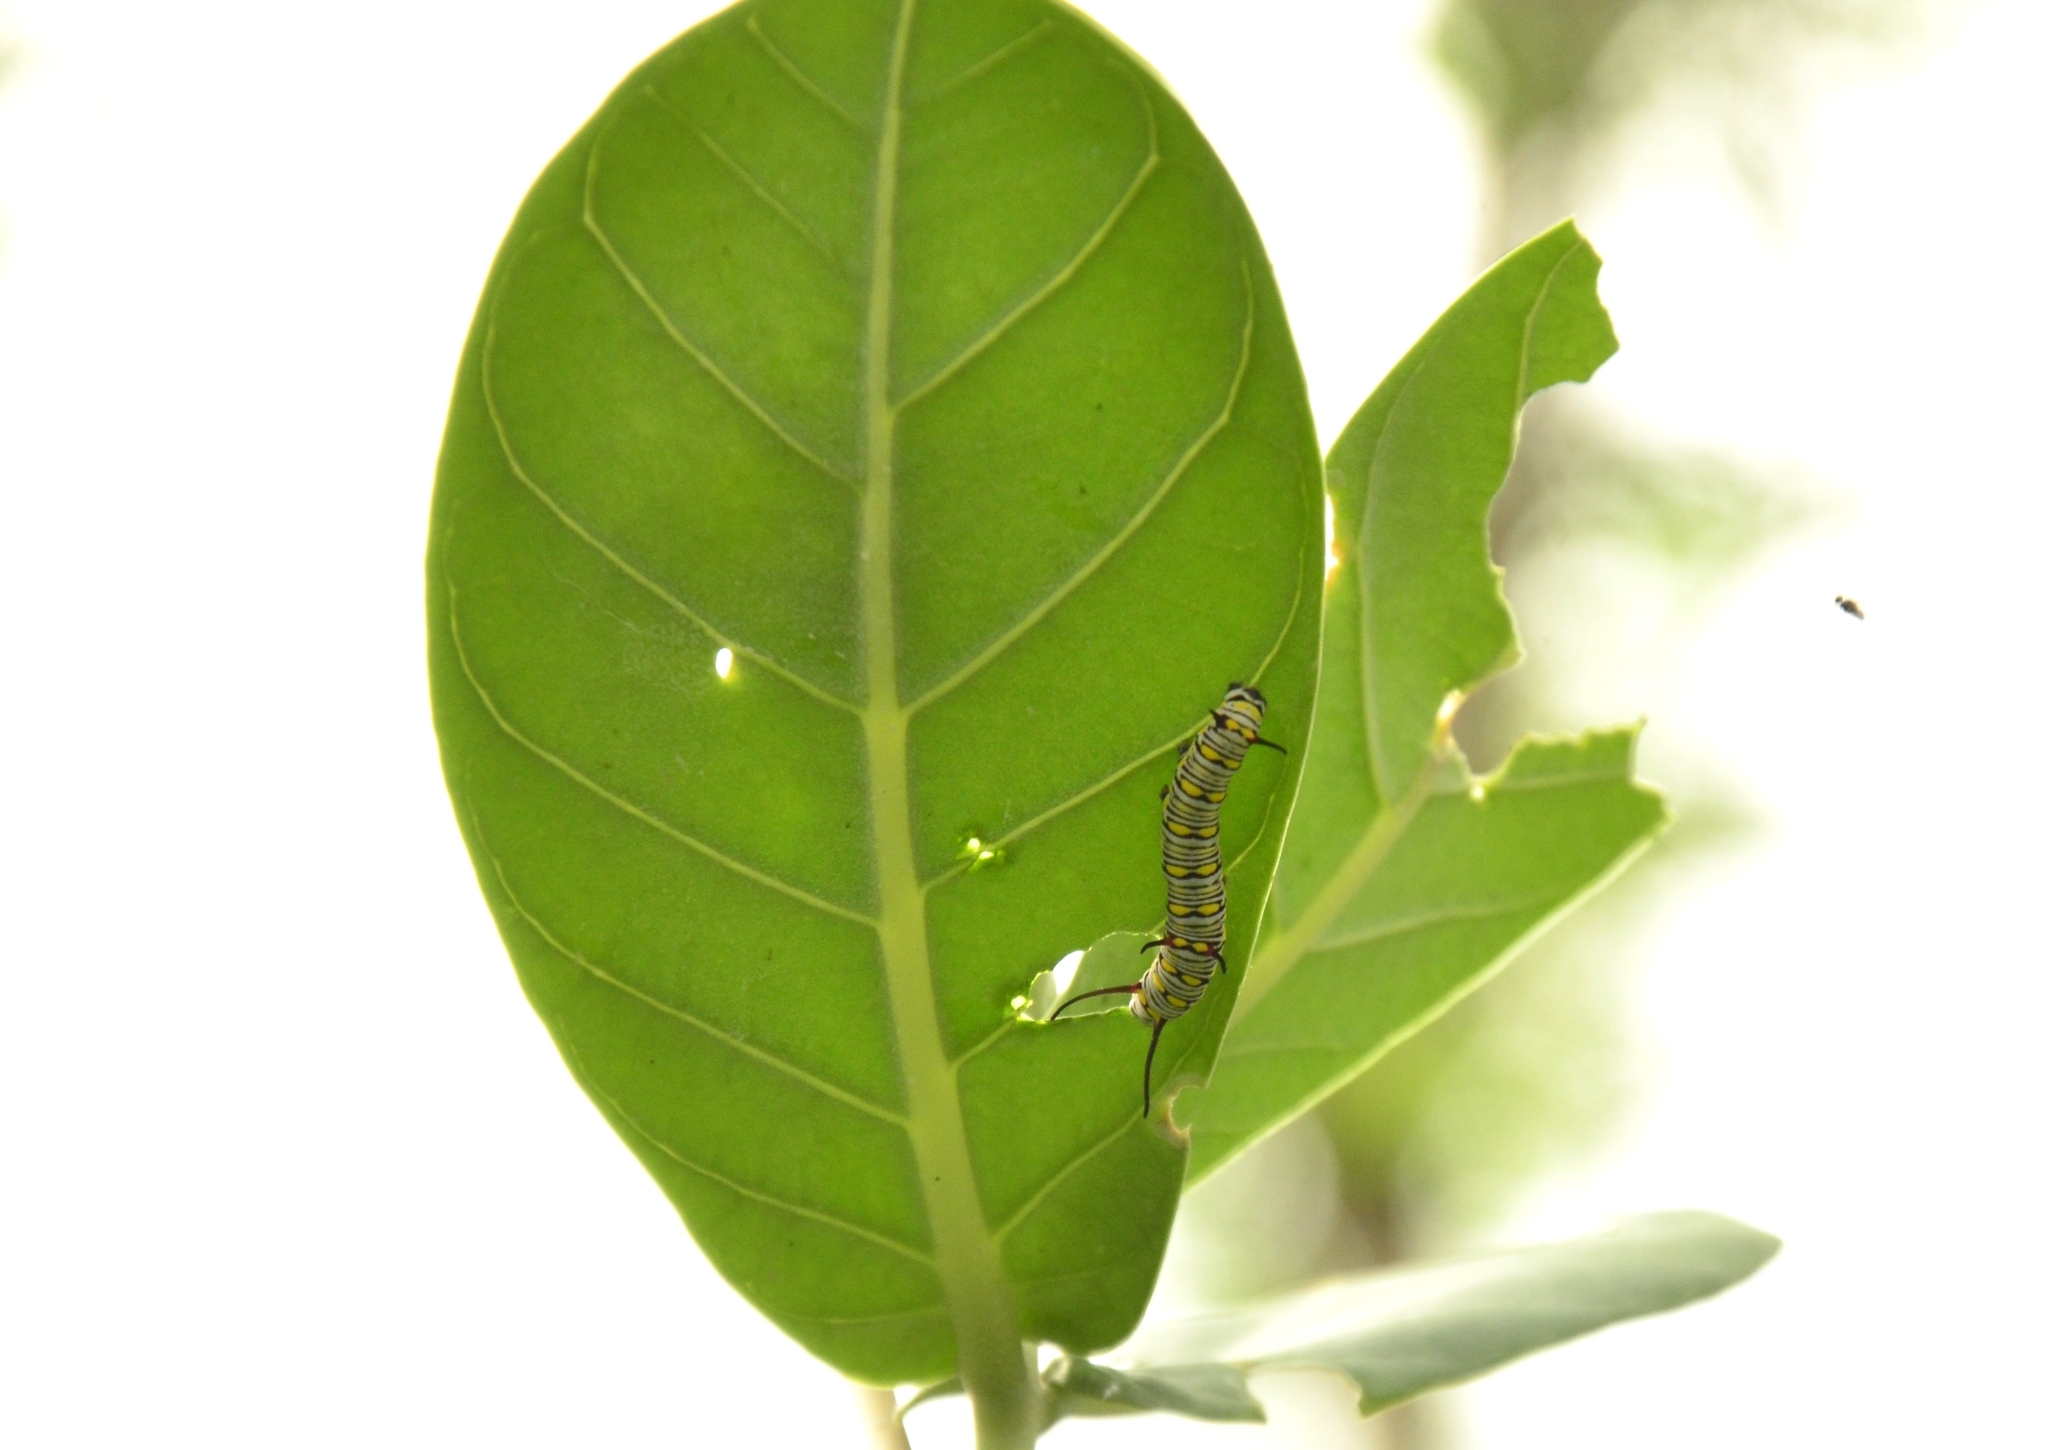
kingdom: Animalia
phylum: Arthropoda
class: Insecta
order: Lepidoptera
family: Nymphalidae
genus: Danaus
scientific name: Danaus chrysippus
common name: Plain tiger
